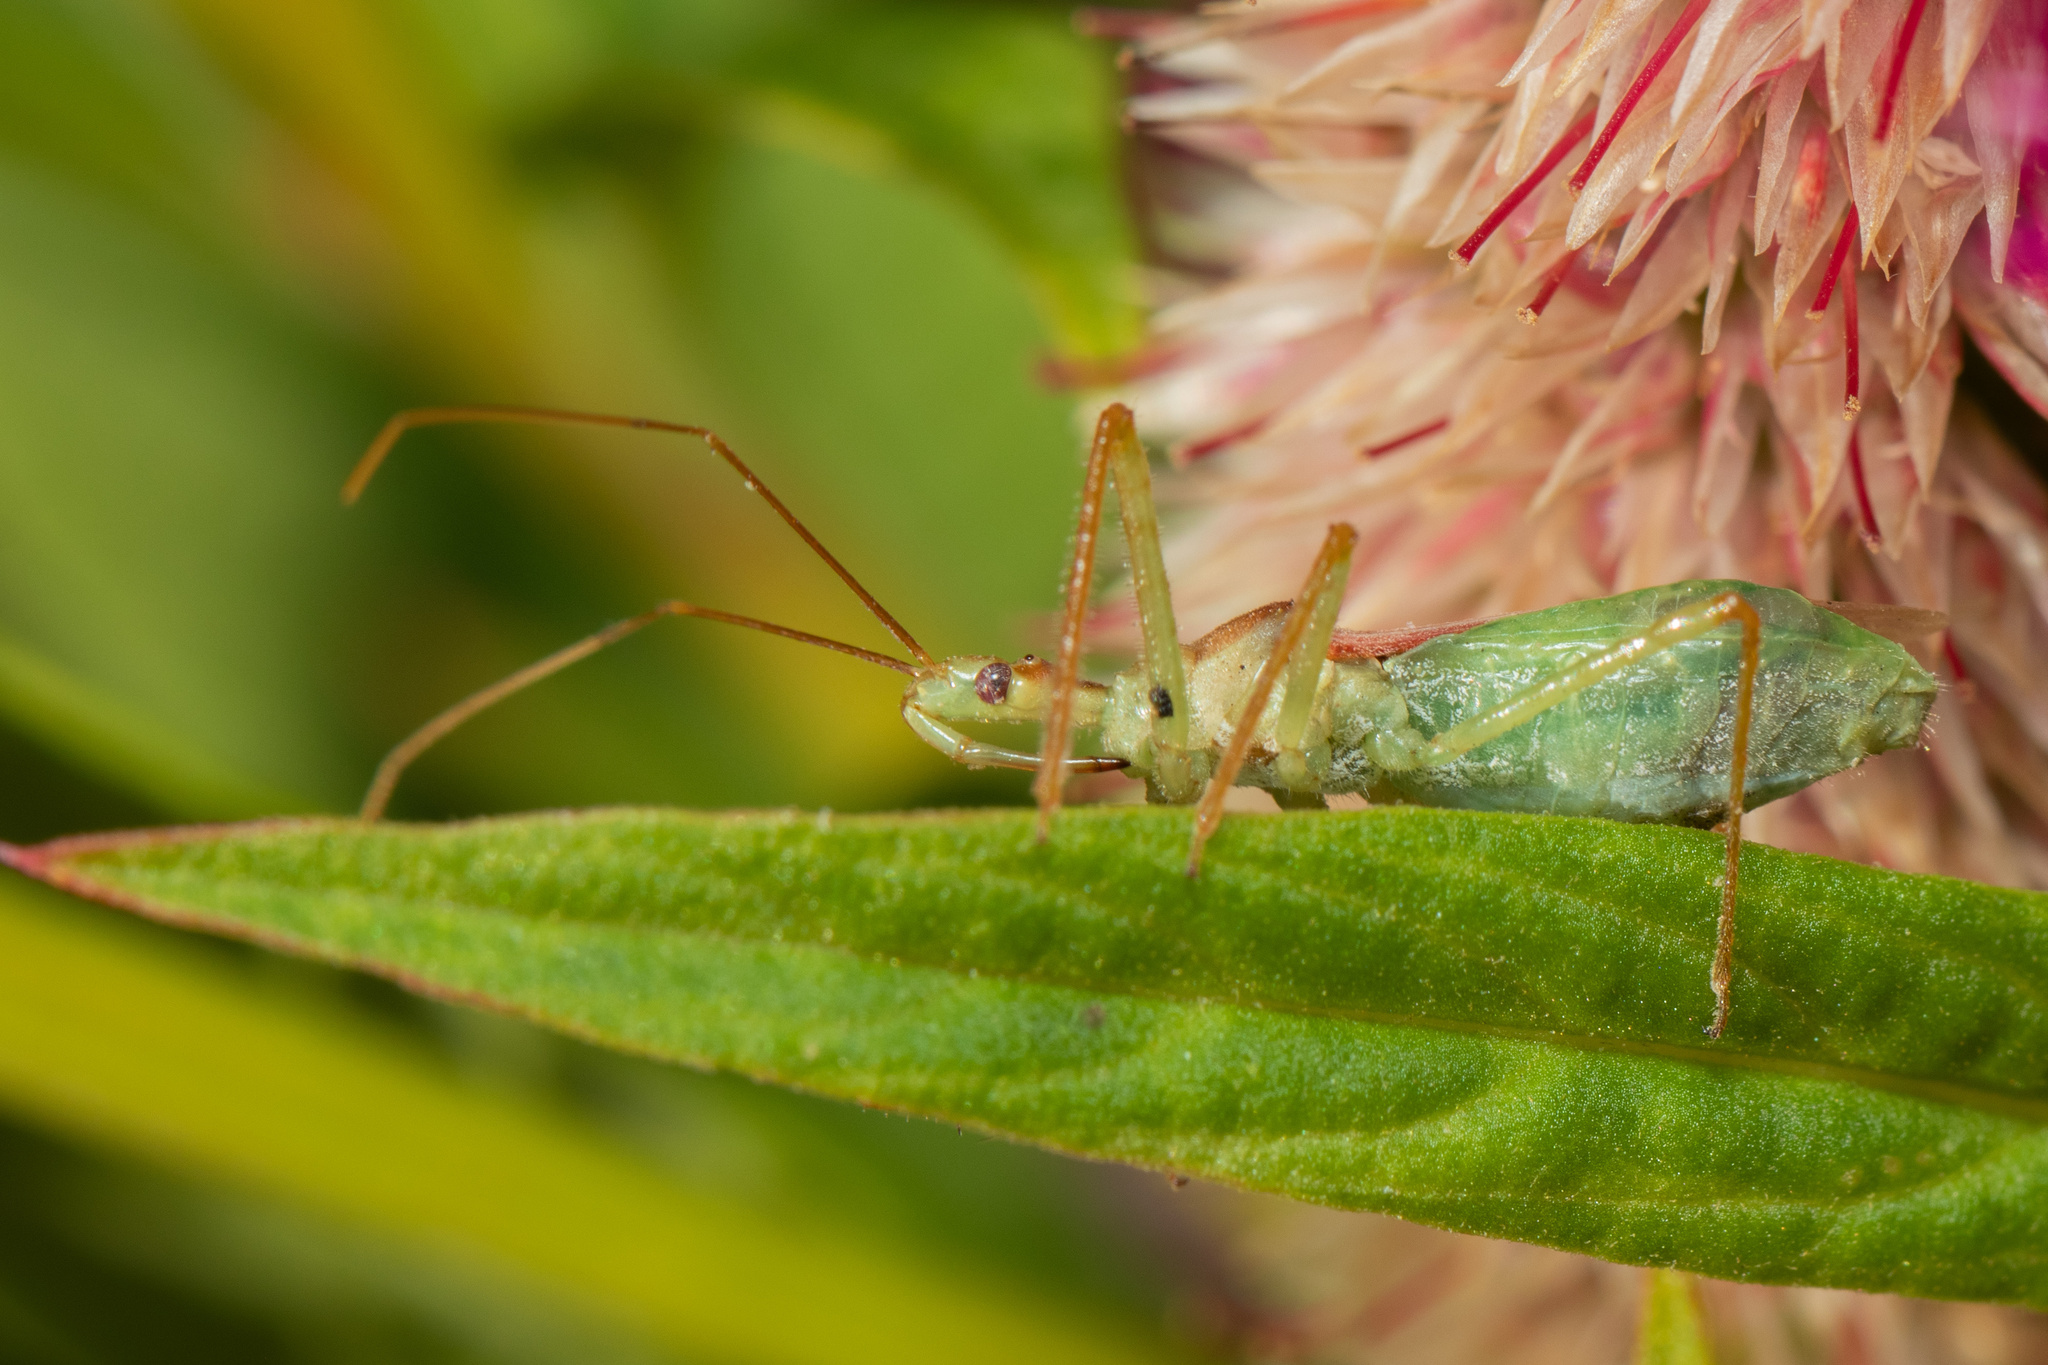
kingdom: Animalia
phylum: Arthropoda
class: Insecta
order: Hemiptera
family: Reduviidae
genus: Zelus
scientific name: Zelus luridus
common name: Pale green assassin bug
